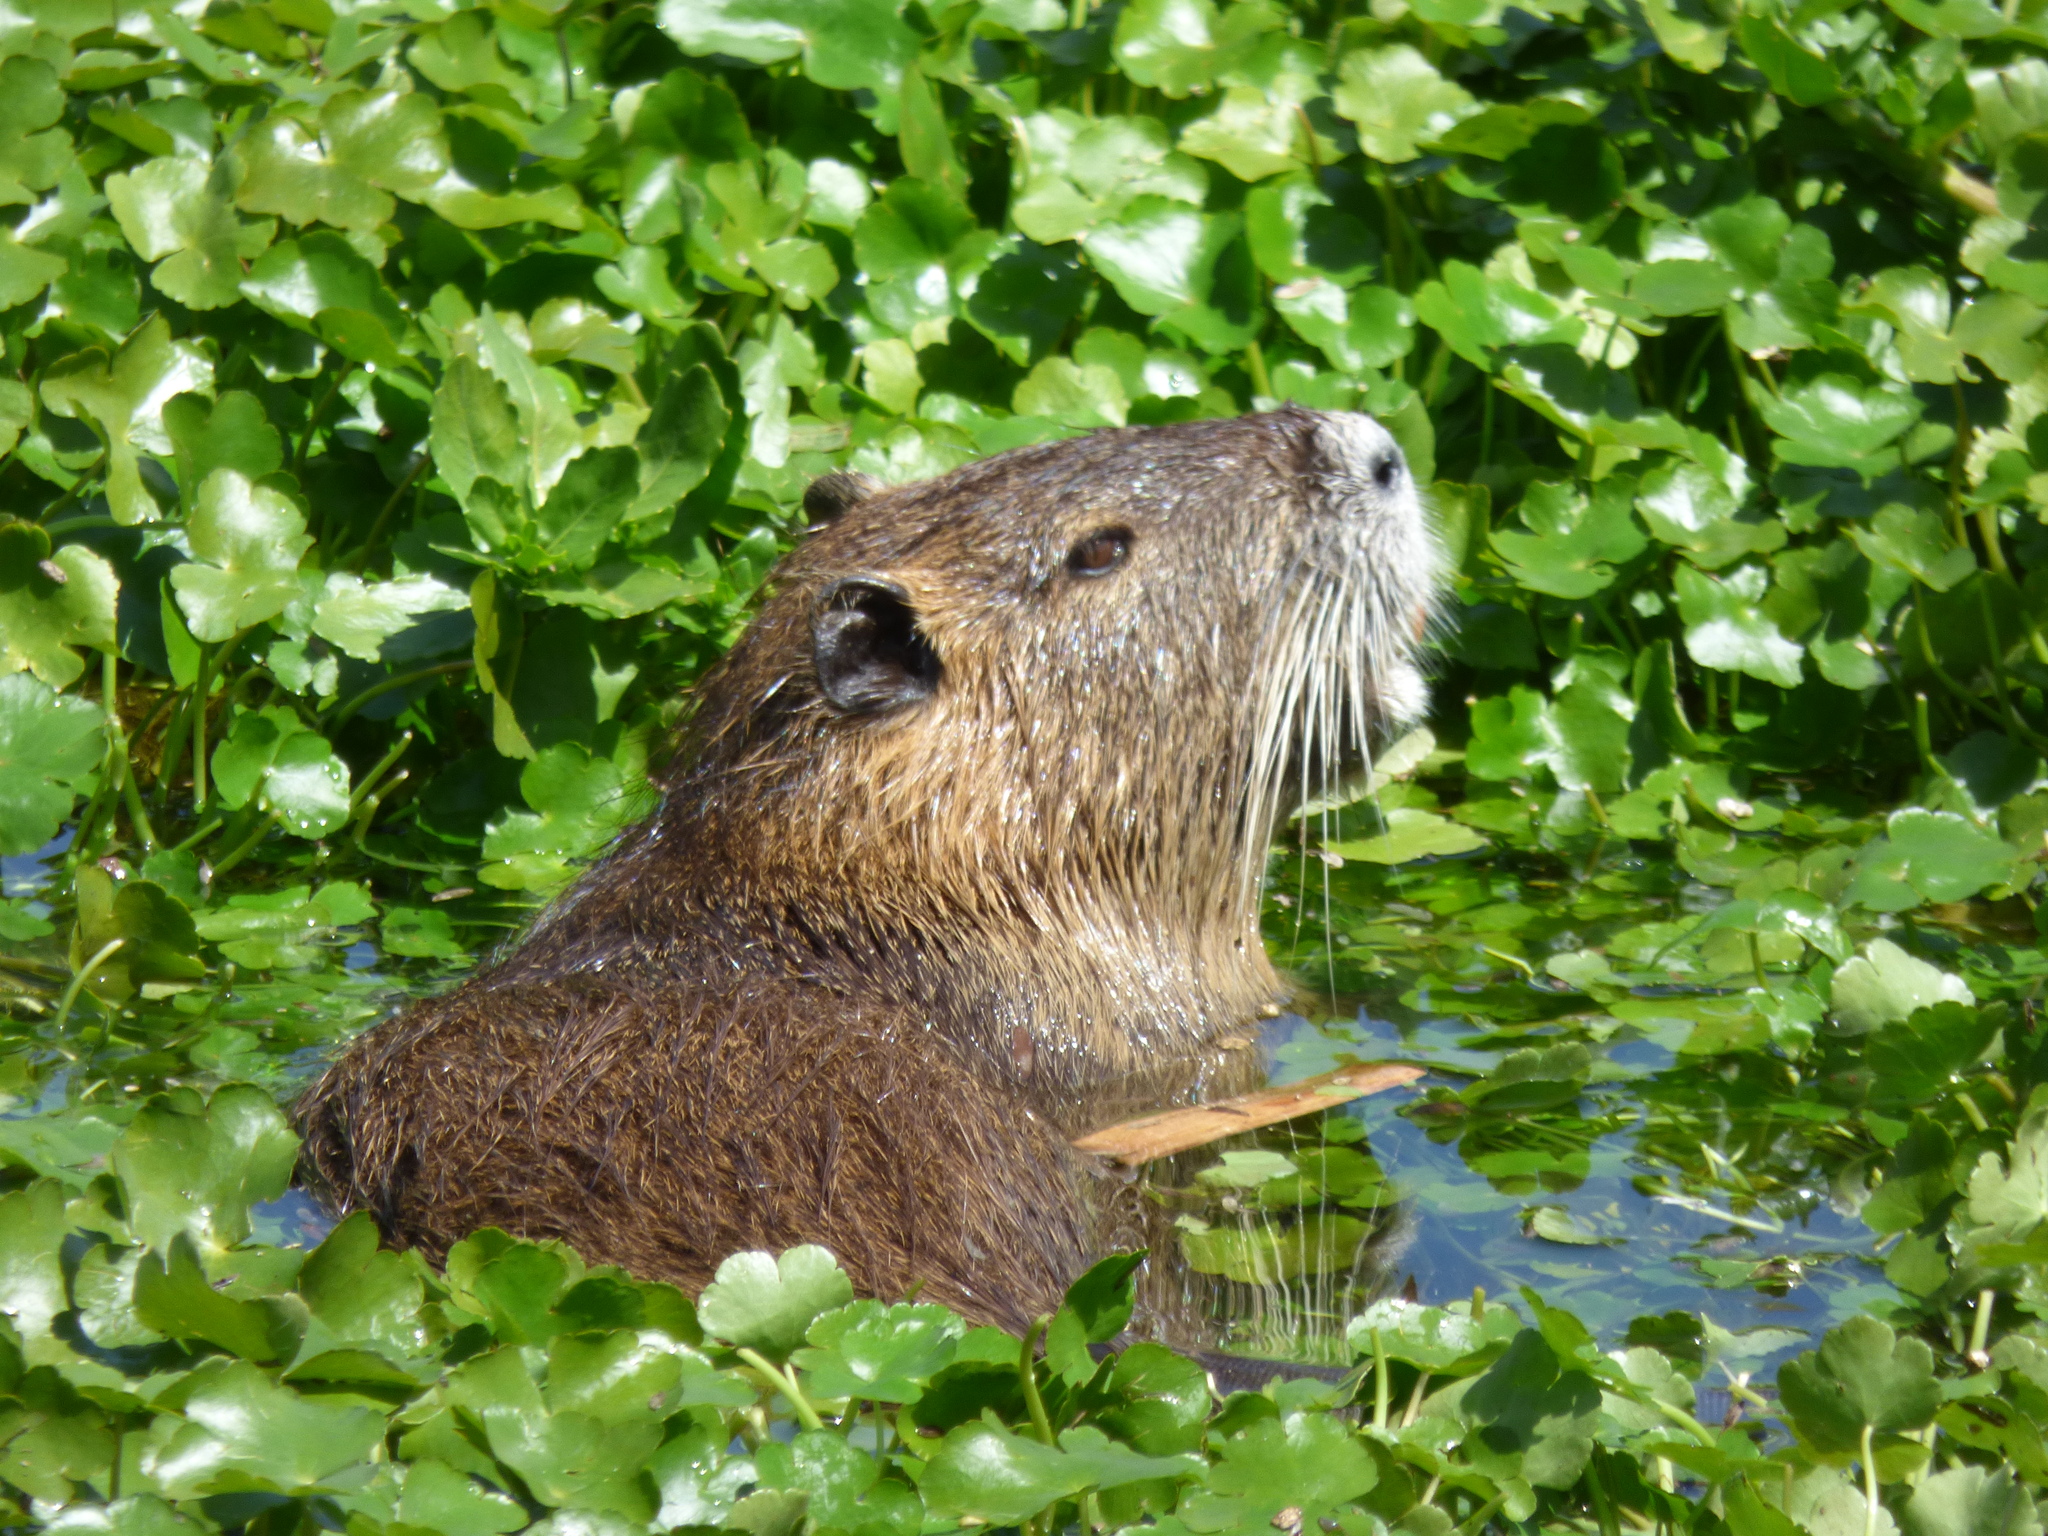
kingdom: Animalia
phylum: Chordata
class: Mammalia
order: Rodentia
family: Myocastoridae
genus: Myocastor
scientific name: Myocastor coypus
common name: Coypu
